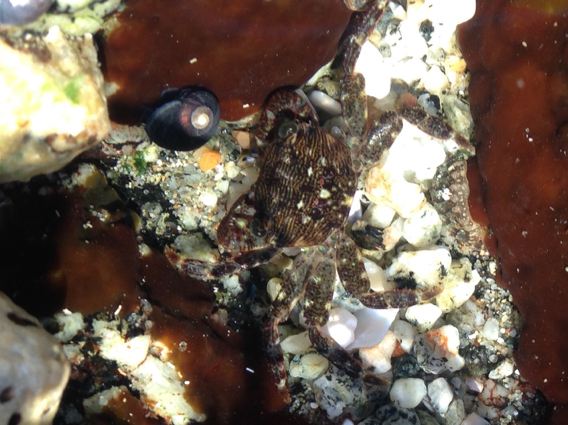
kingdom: Animalia
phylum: Arthropoda
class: Malacostraca
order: Decapoda
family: Grapsidae
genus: Pachygrapsus
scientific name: Pachygrapsus crassipes
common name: Striped shore crab
